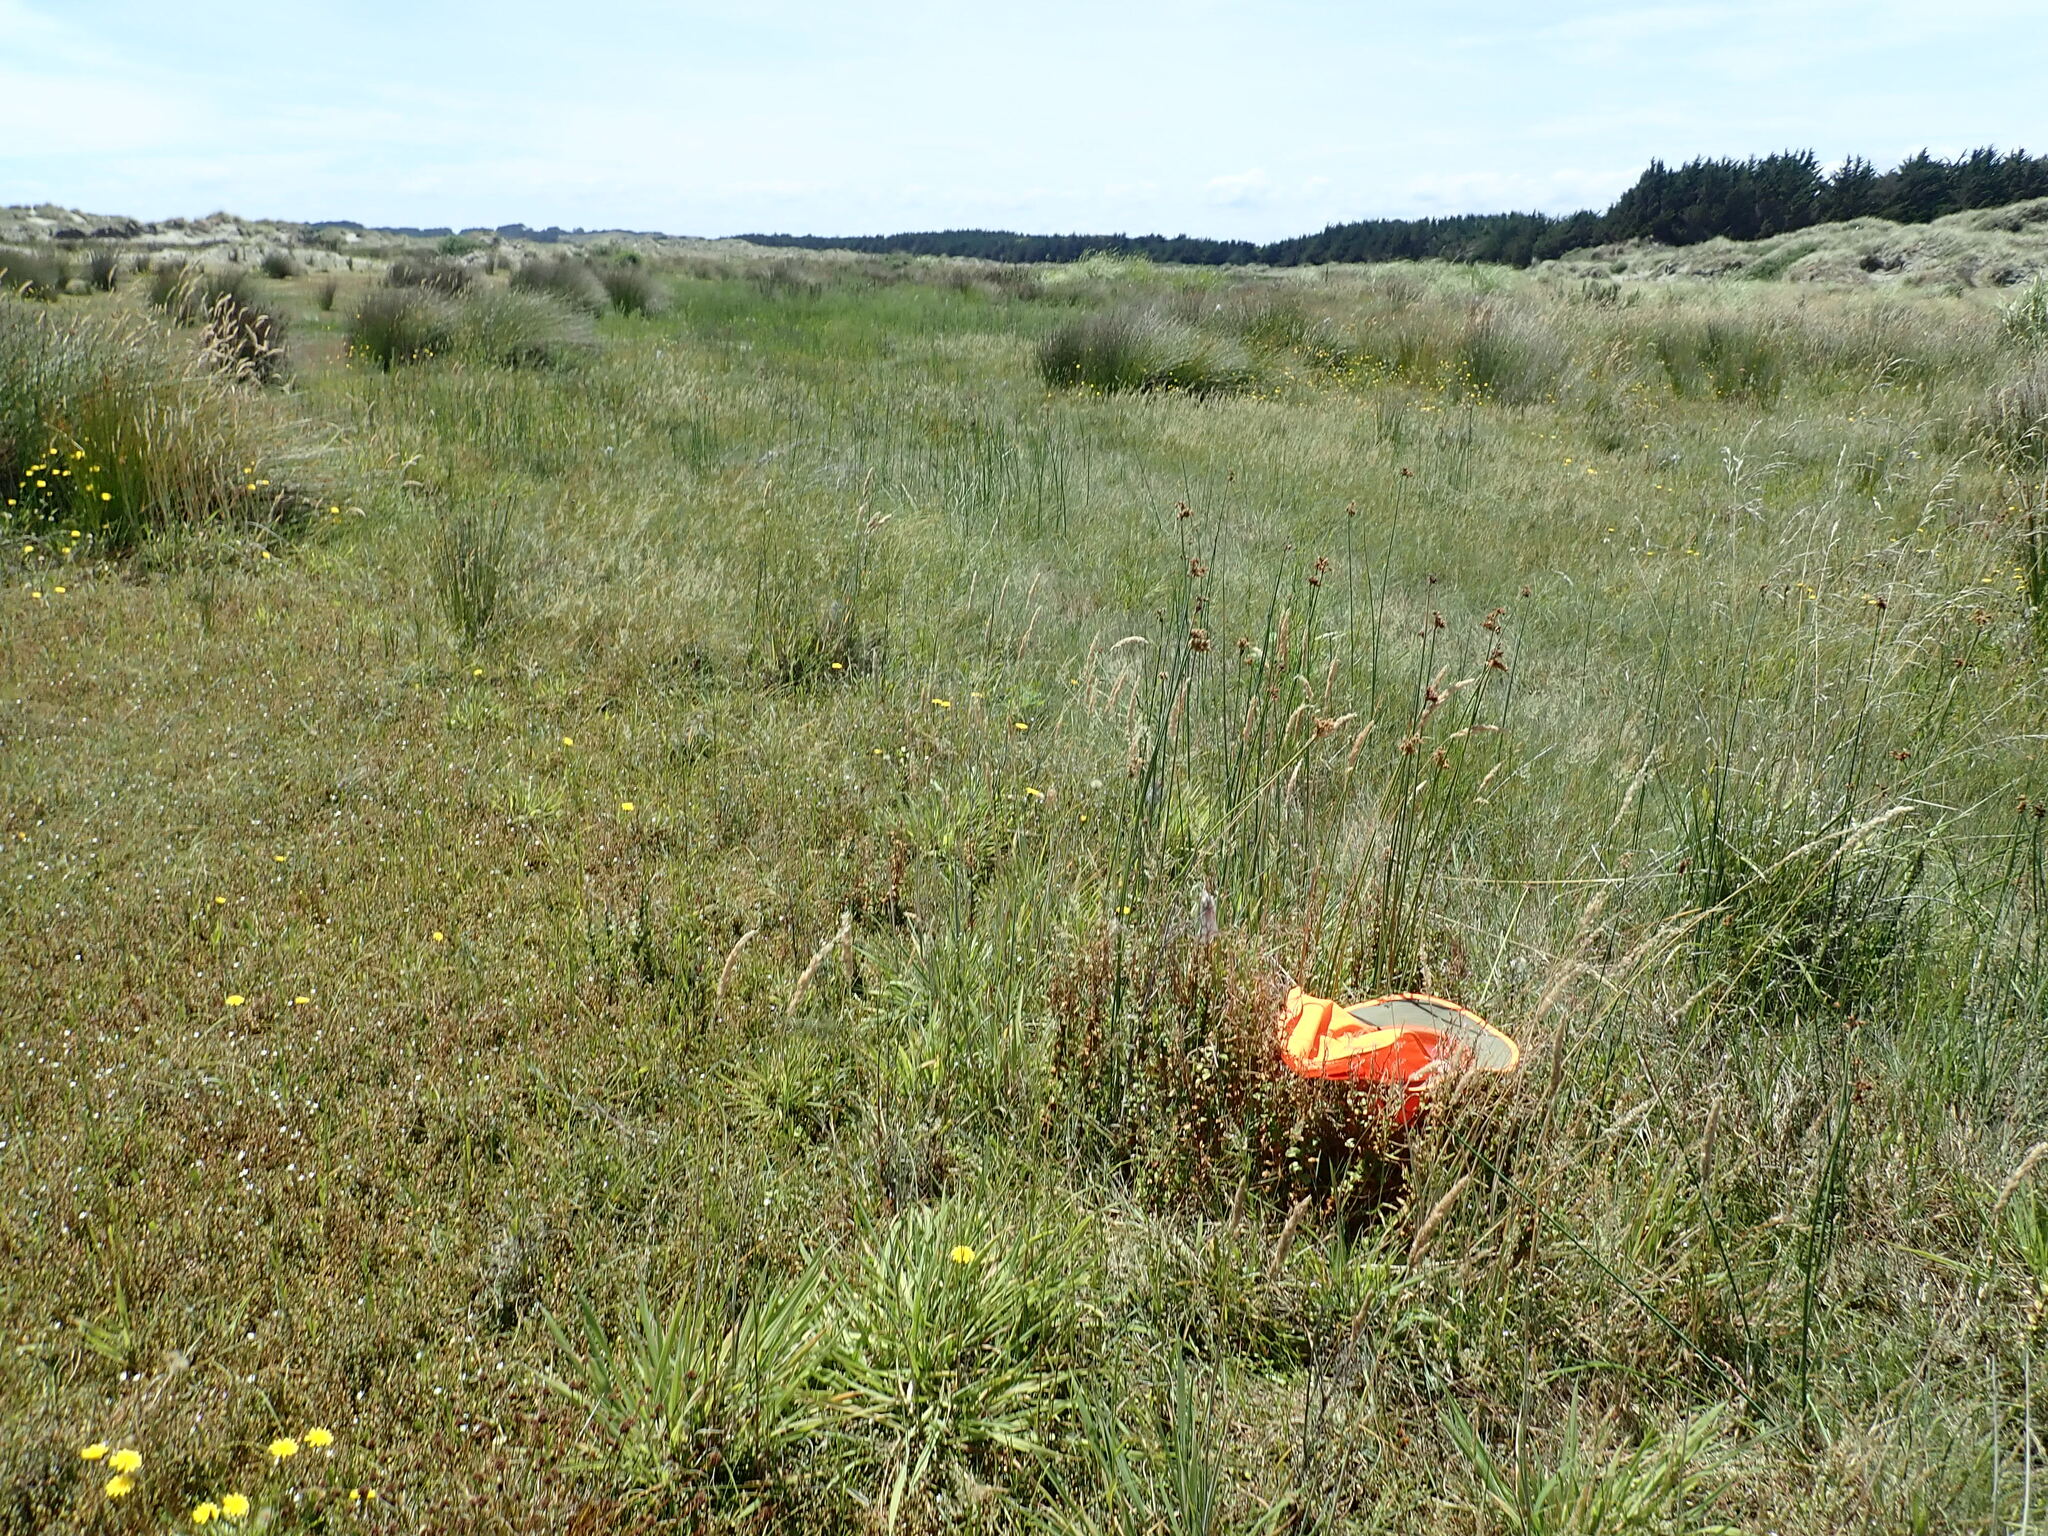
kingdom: Plantae
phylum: Tracheophyta
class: Magnoliopsida
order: Myrtales
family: Onagraceae
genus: Epilobium
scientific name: Epilobium billardiereanum
